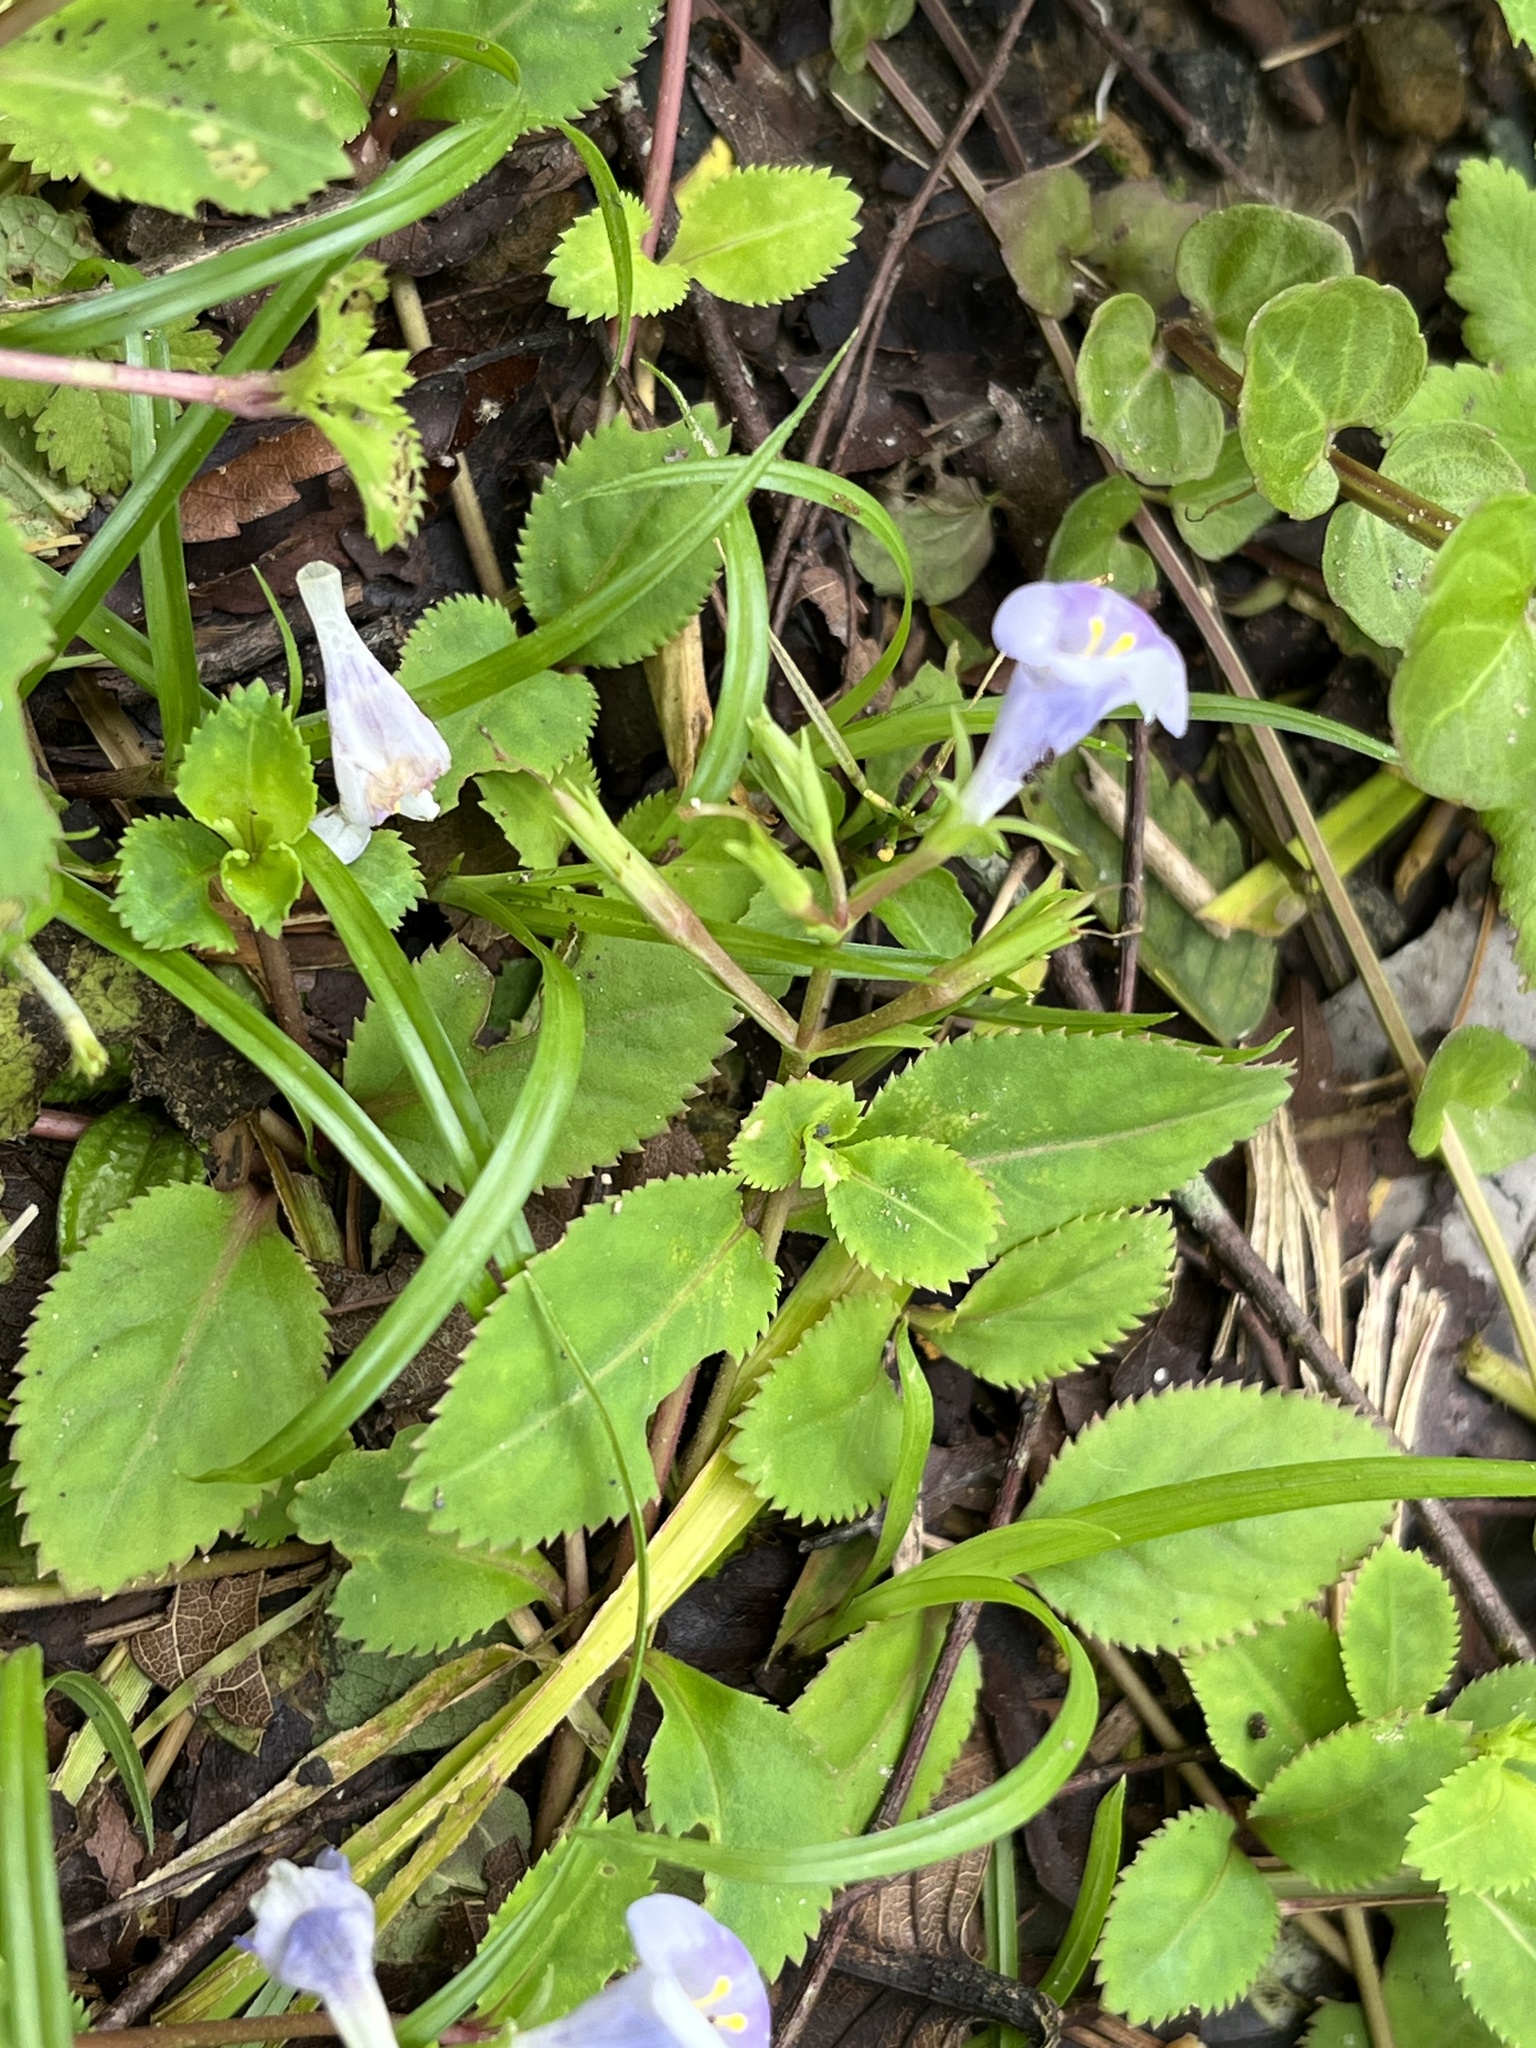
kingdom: Plantae
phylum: Tracheophyta
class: Magnoliopsida
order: Lamiales
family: Linderniaceae
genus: Bonnaya
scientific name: Bonnaya ruelloides
